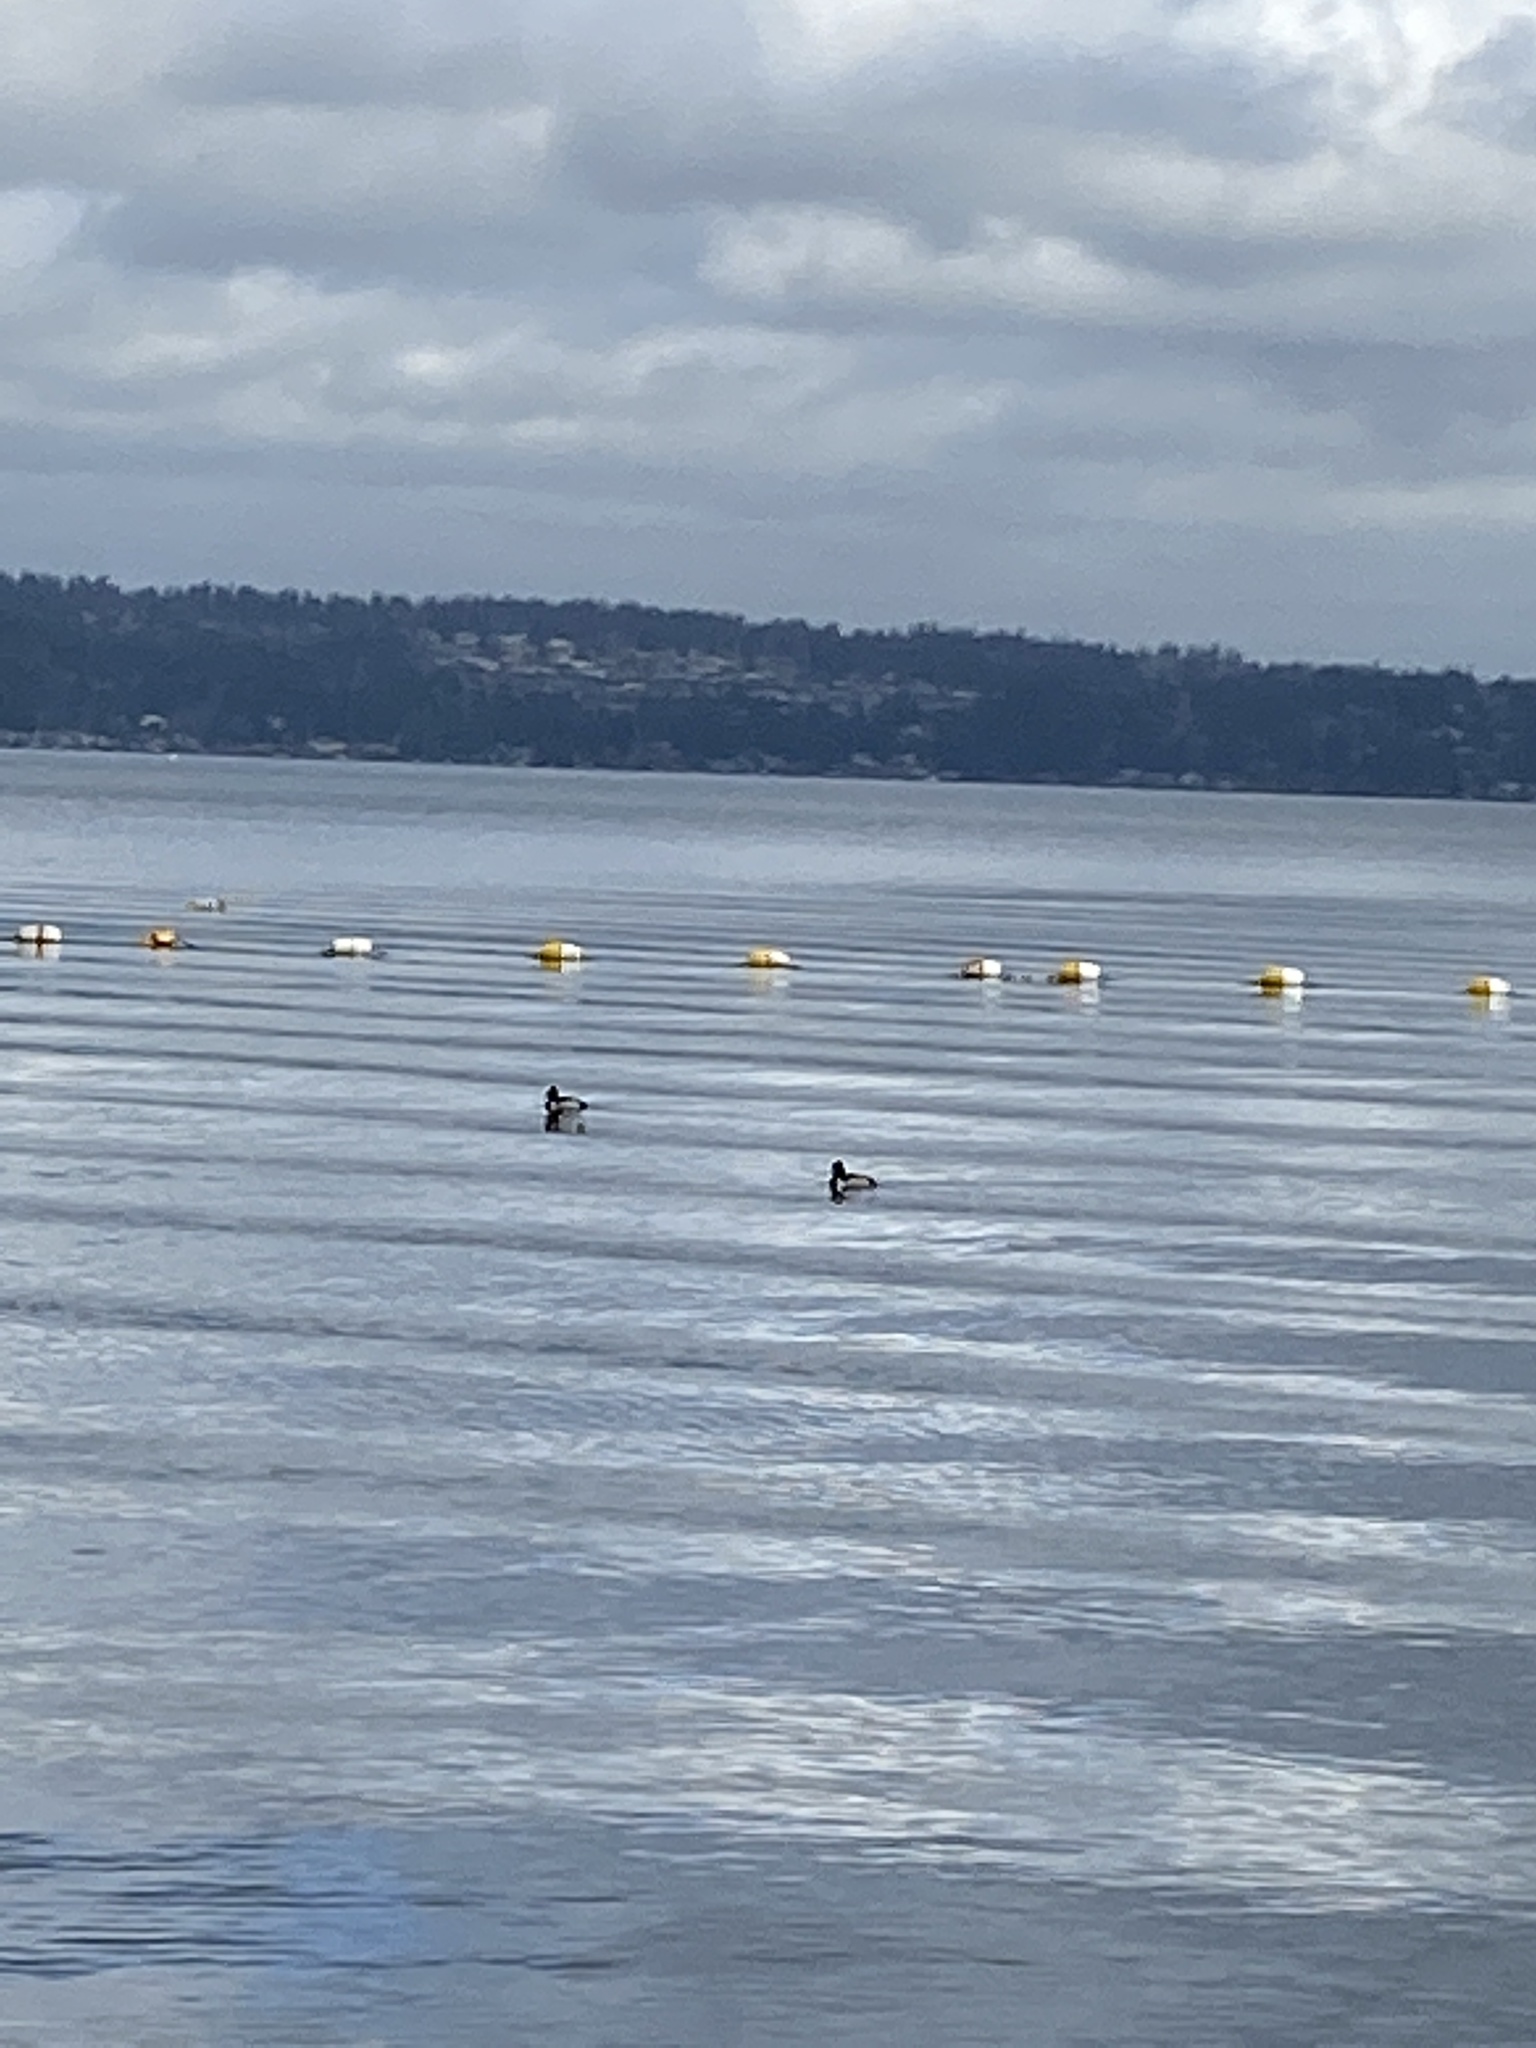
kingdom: Animalia
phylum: Chordata
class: Aves
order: Anseriformes
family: Anatidae
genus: Aythya
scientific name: Aythya collaris
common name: Ring-necked duck
